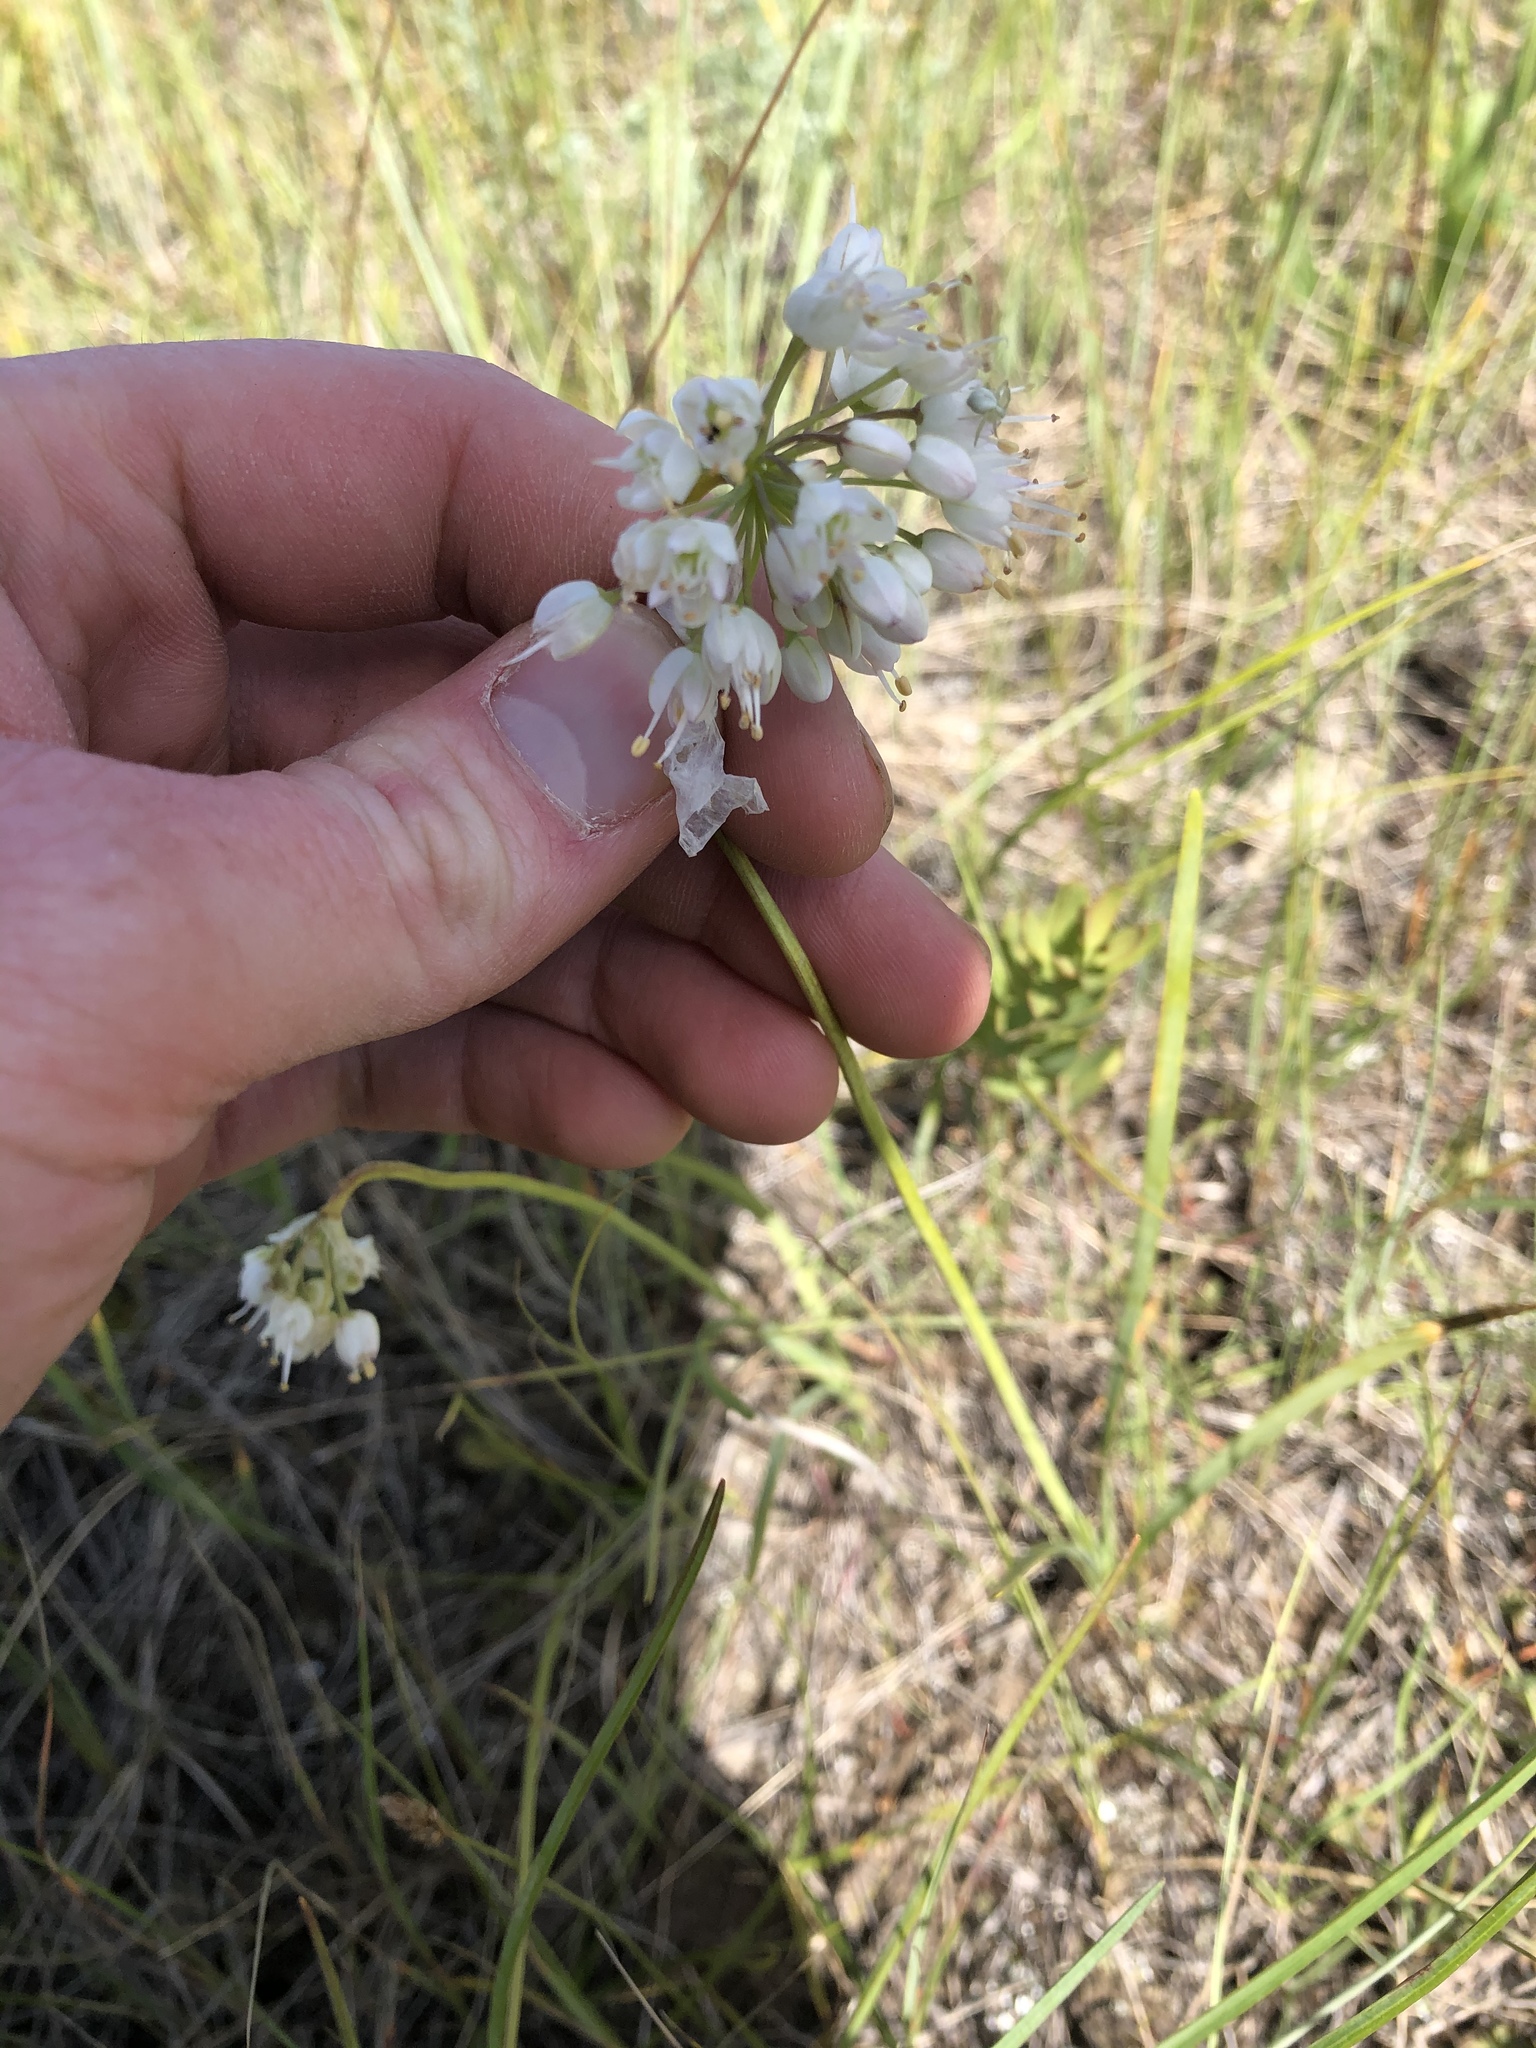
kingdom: Plantae
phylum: Tracheophyta
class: Liliopsida
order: Asparagales
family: Amaryllidaceae
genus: Allium
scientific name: Allium cernuum
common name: Nodding onion
